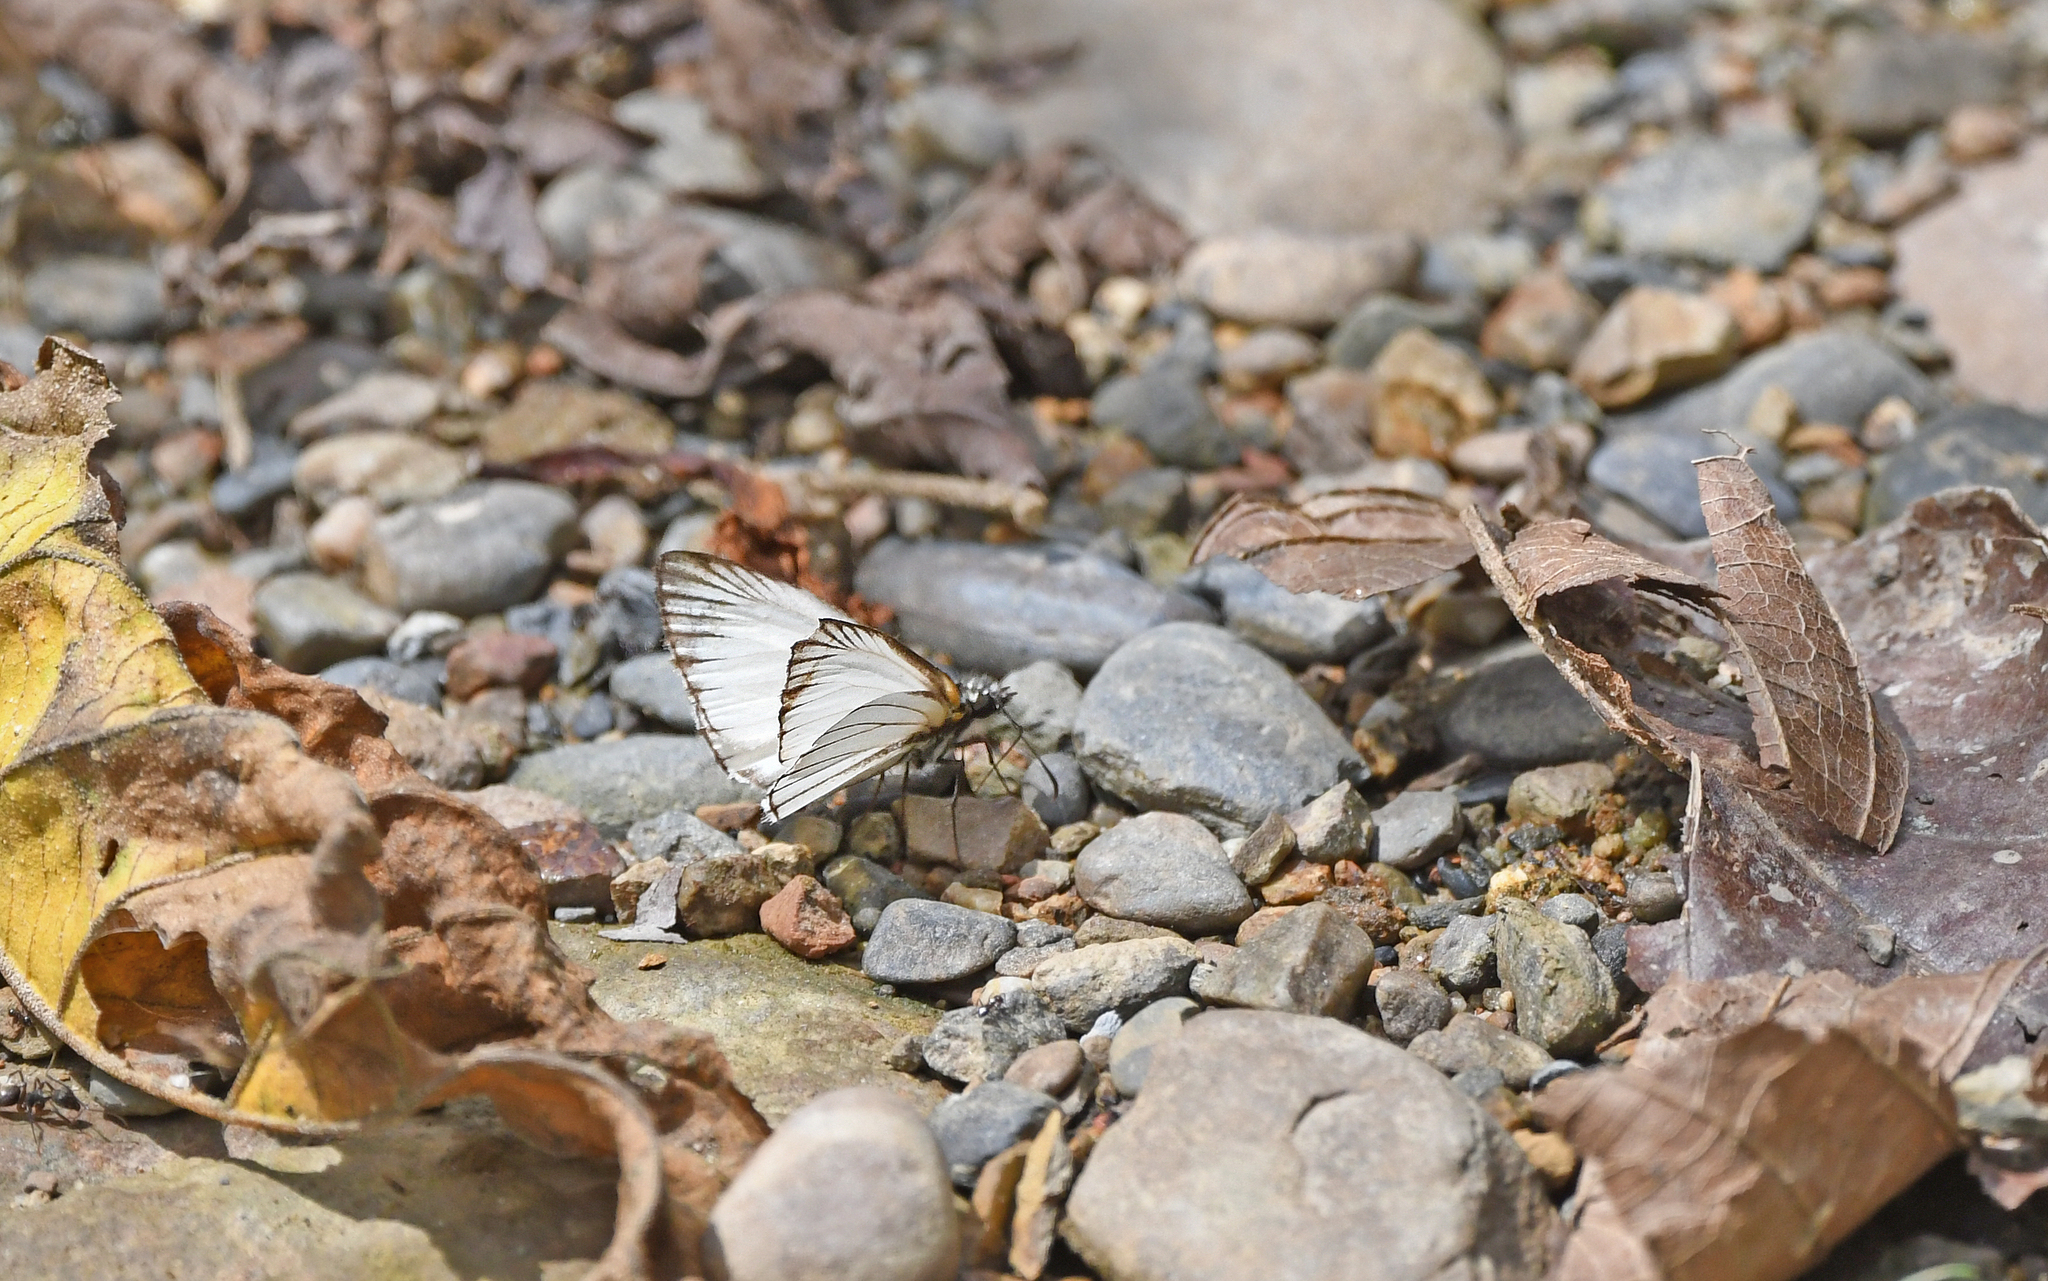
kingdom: Animalia
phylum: Arthropoda
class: Insecta
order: Lepidoptera
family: Hesperiidae
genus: Heliopetes
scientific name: Heliopetes arsalte
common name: Veined white-skipper
